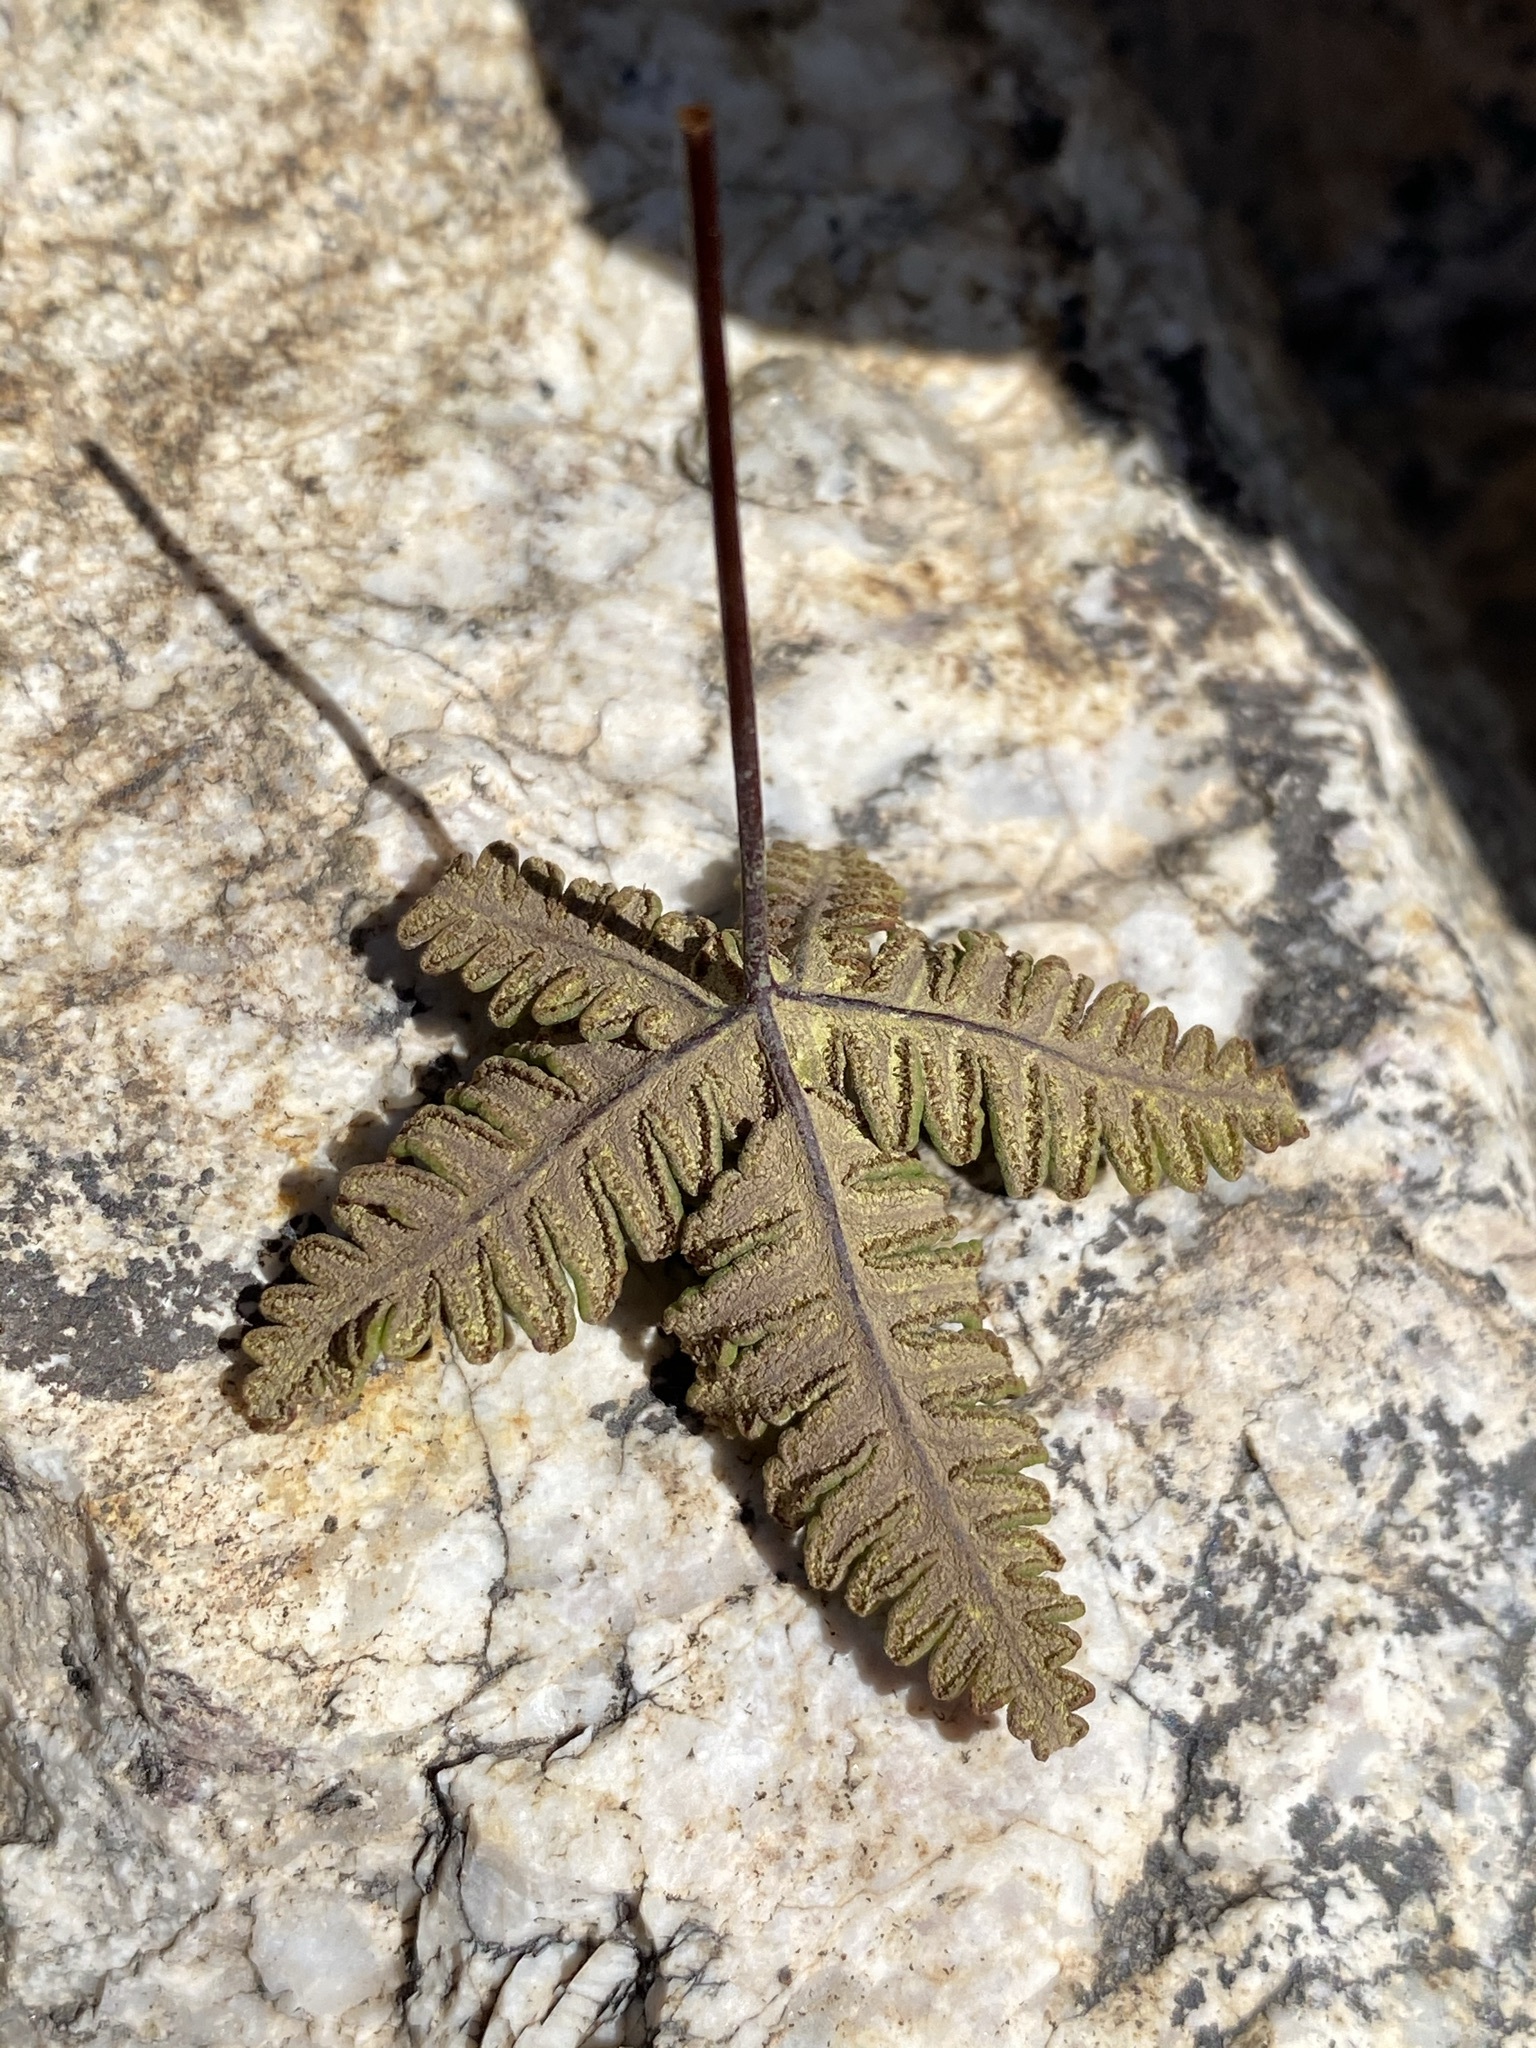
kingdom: Plantae
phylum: Tracheophyta
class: Polypodiopsida
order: Polypodiales
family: Pteridaceae
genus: Notholaena
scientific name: Notholaena standleyi
